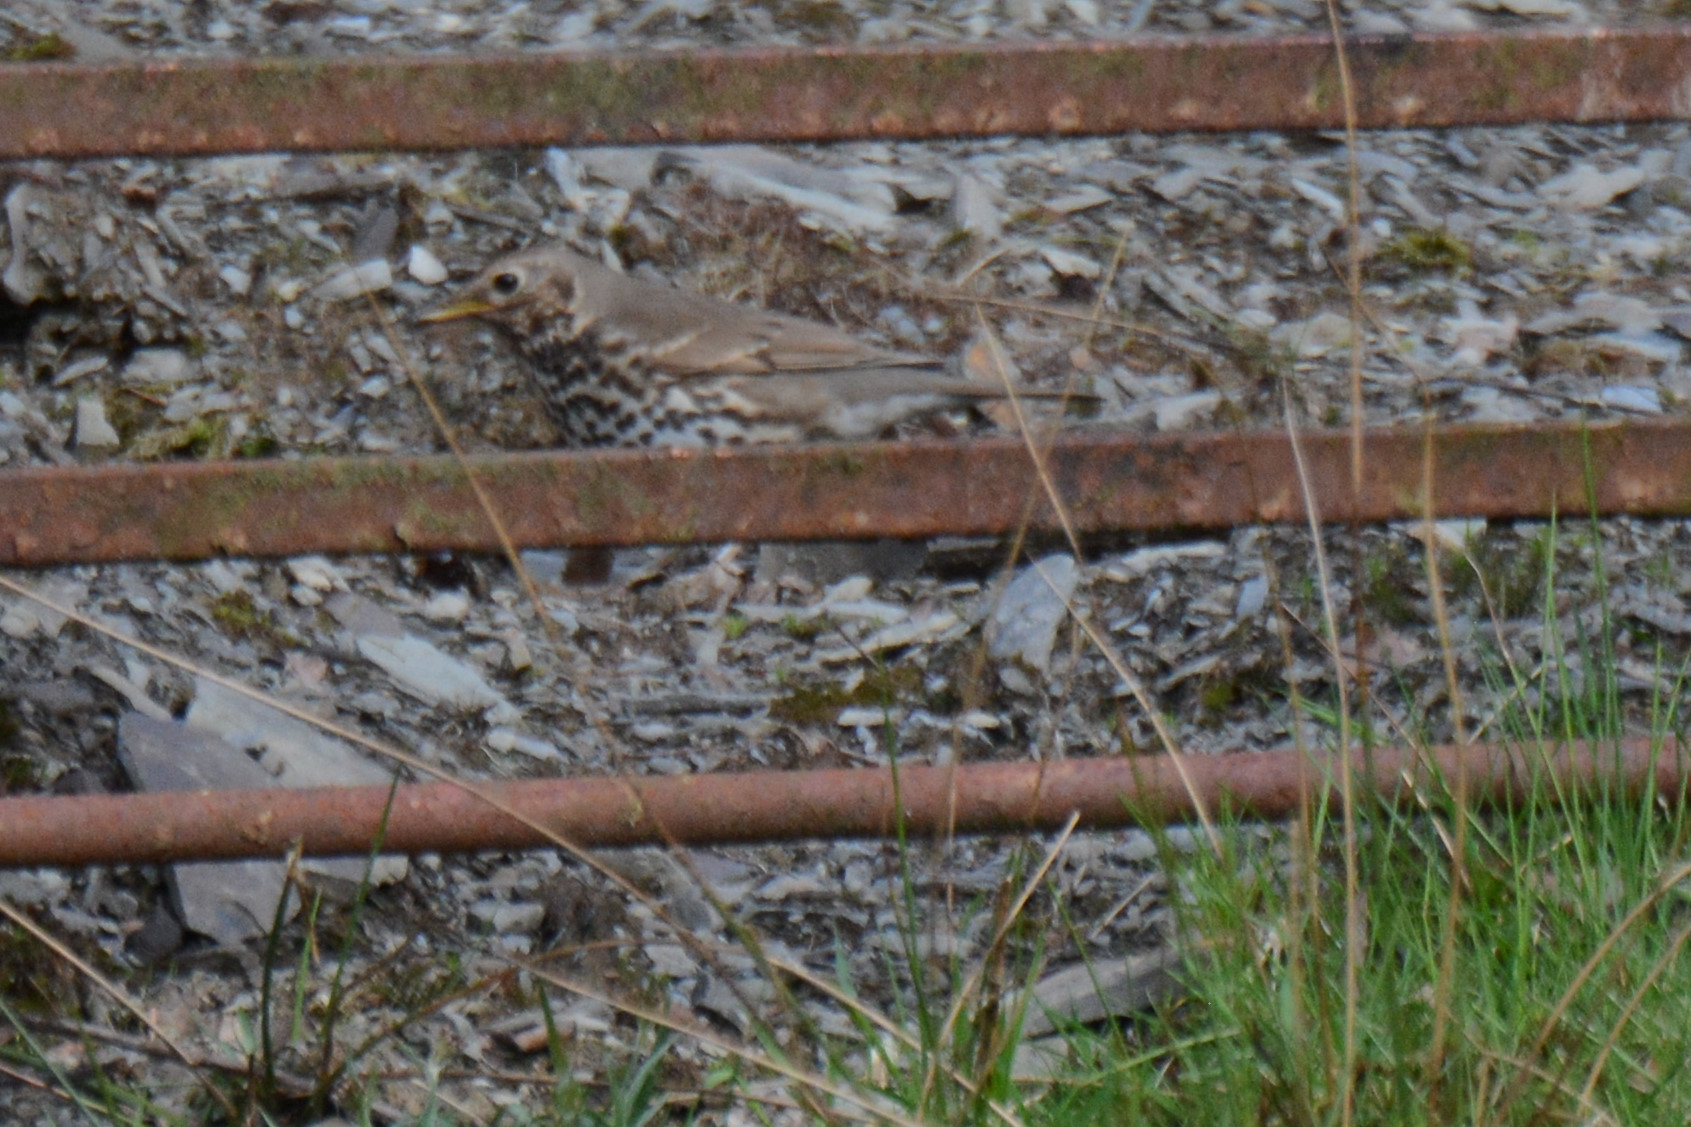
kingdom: Animalia
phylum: Chordata
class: Aves
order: Passeriformes
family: Turdidae
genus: Turdus
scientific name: Turdus philomelos
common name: Song thrush
